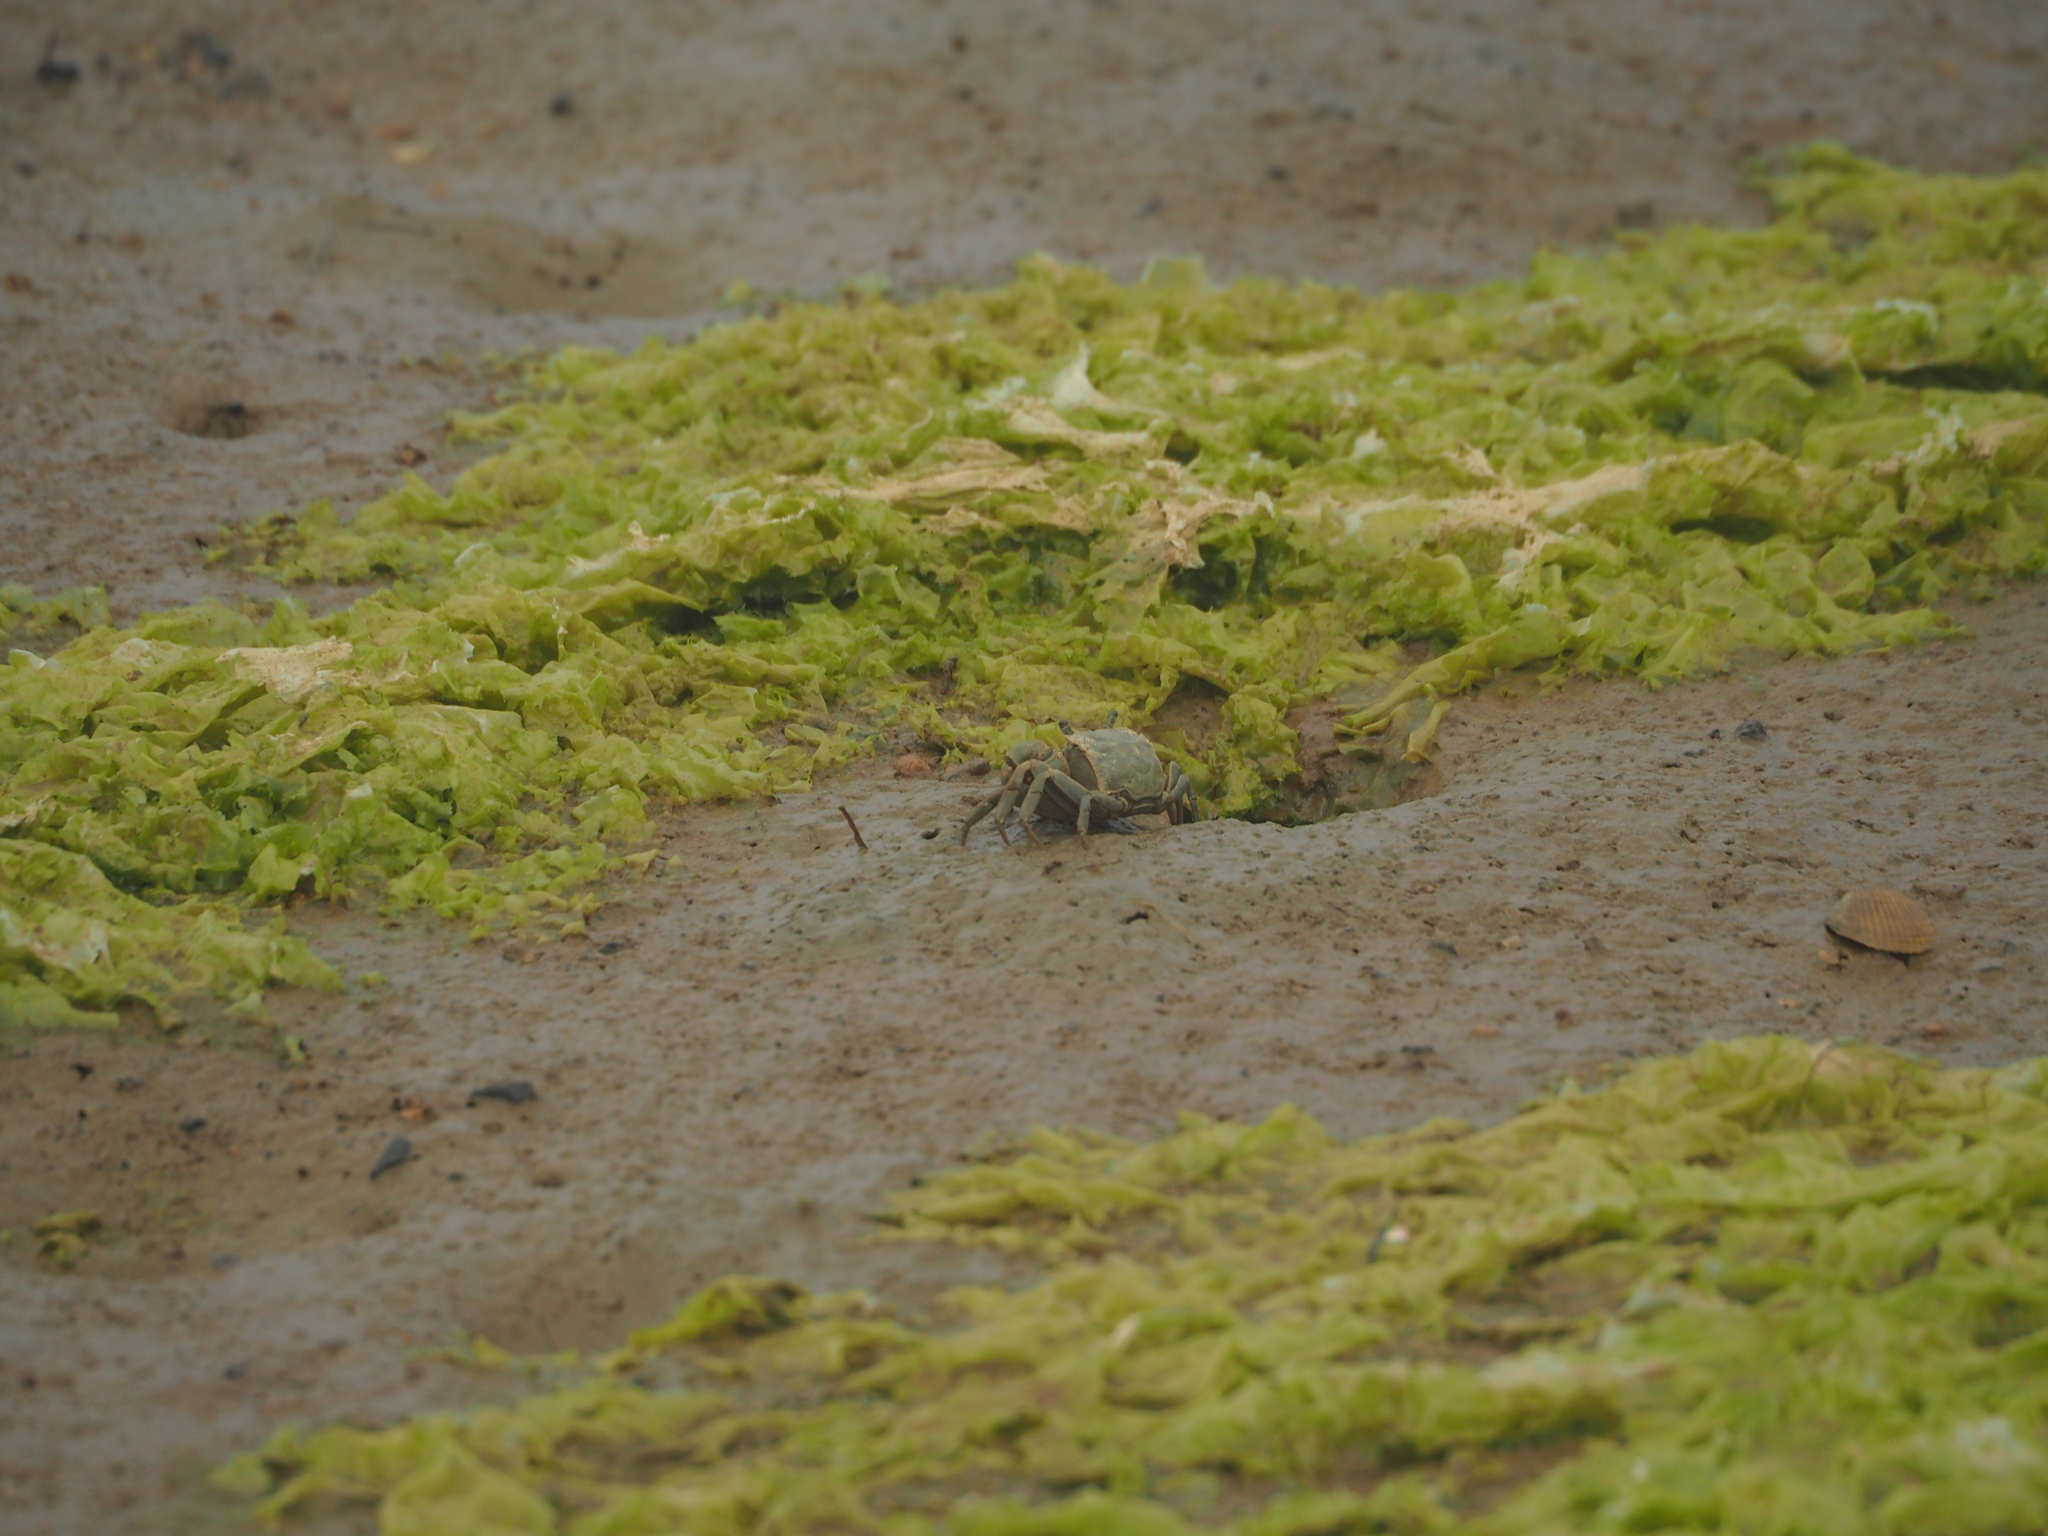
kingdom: Animalia
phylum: Arthropoda
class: Malacostraca
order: Decapoda
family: Varunidae
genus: Austrohelice
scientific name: Austrohelice crassa
